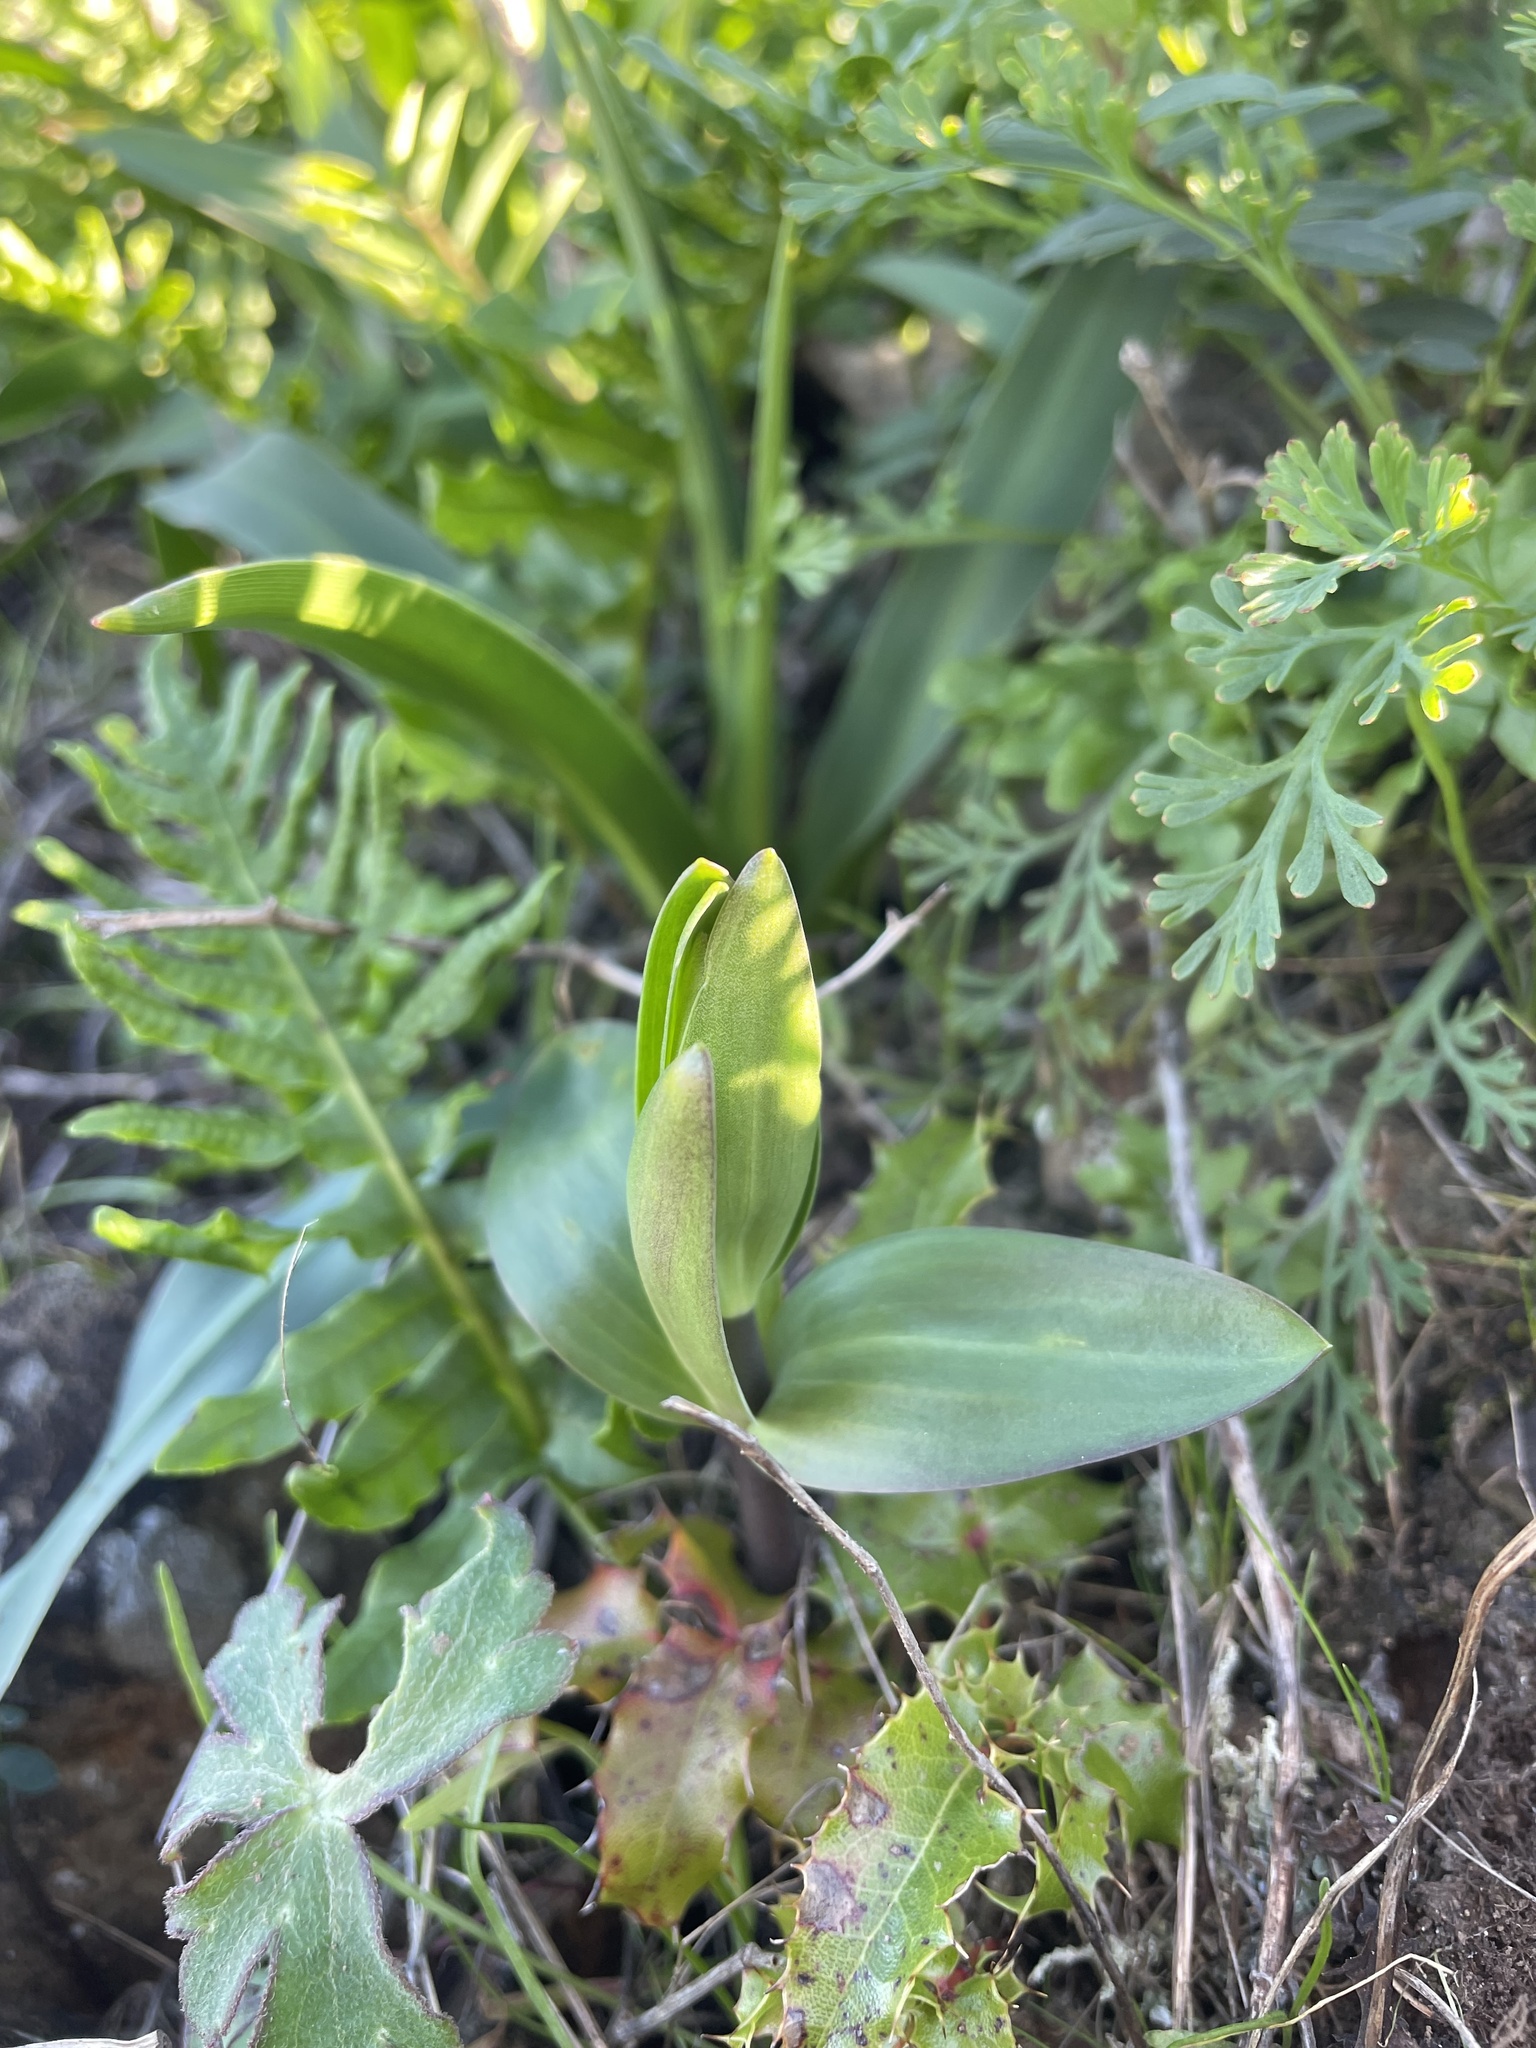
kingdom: Plantae
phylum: Tracheophyta
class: Liliopsida
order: Liliales
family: Liliaceae
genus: Fritillaria
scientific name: Fritillaria affinis
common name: Ojai fritillary
